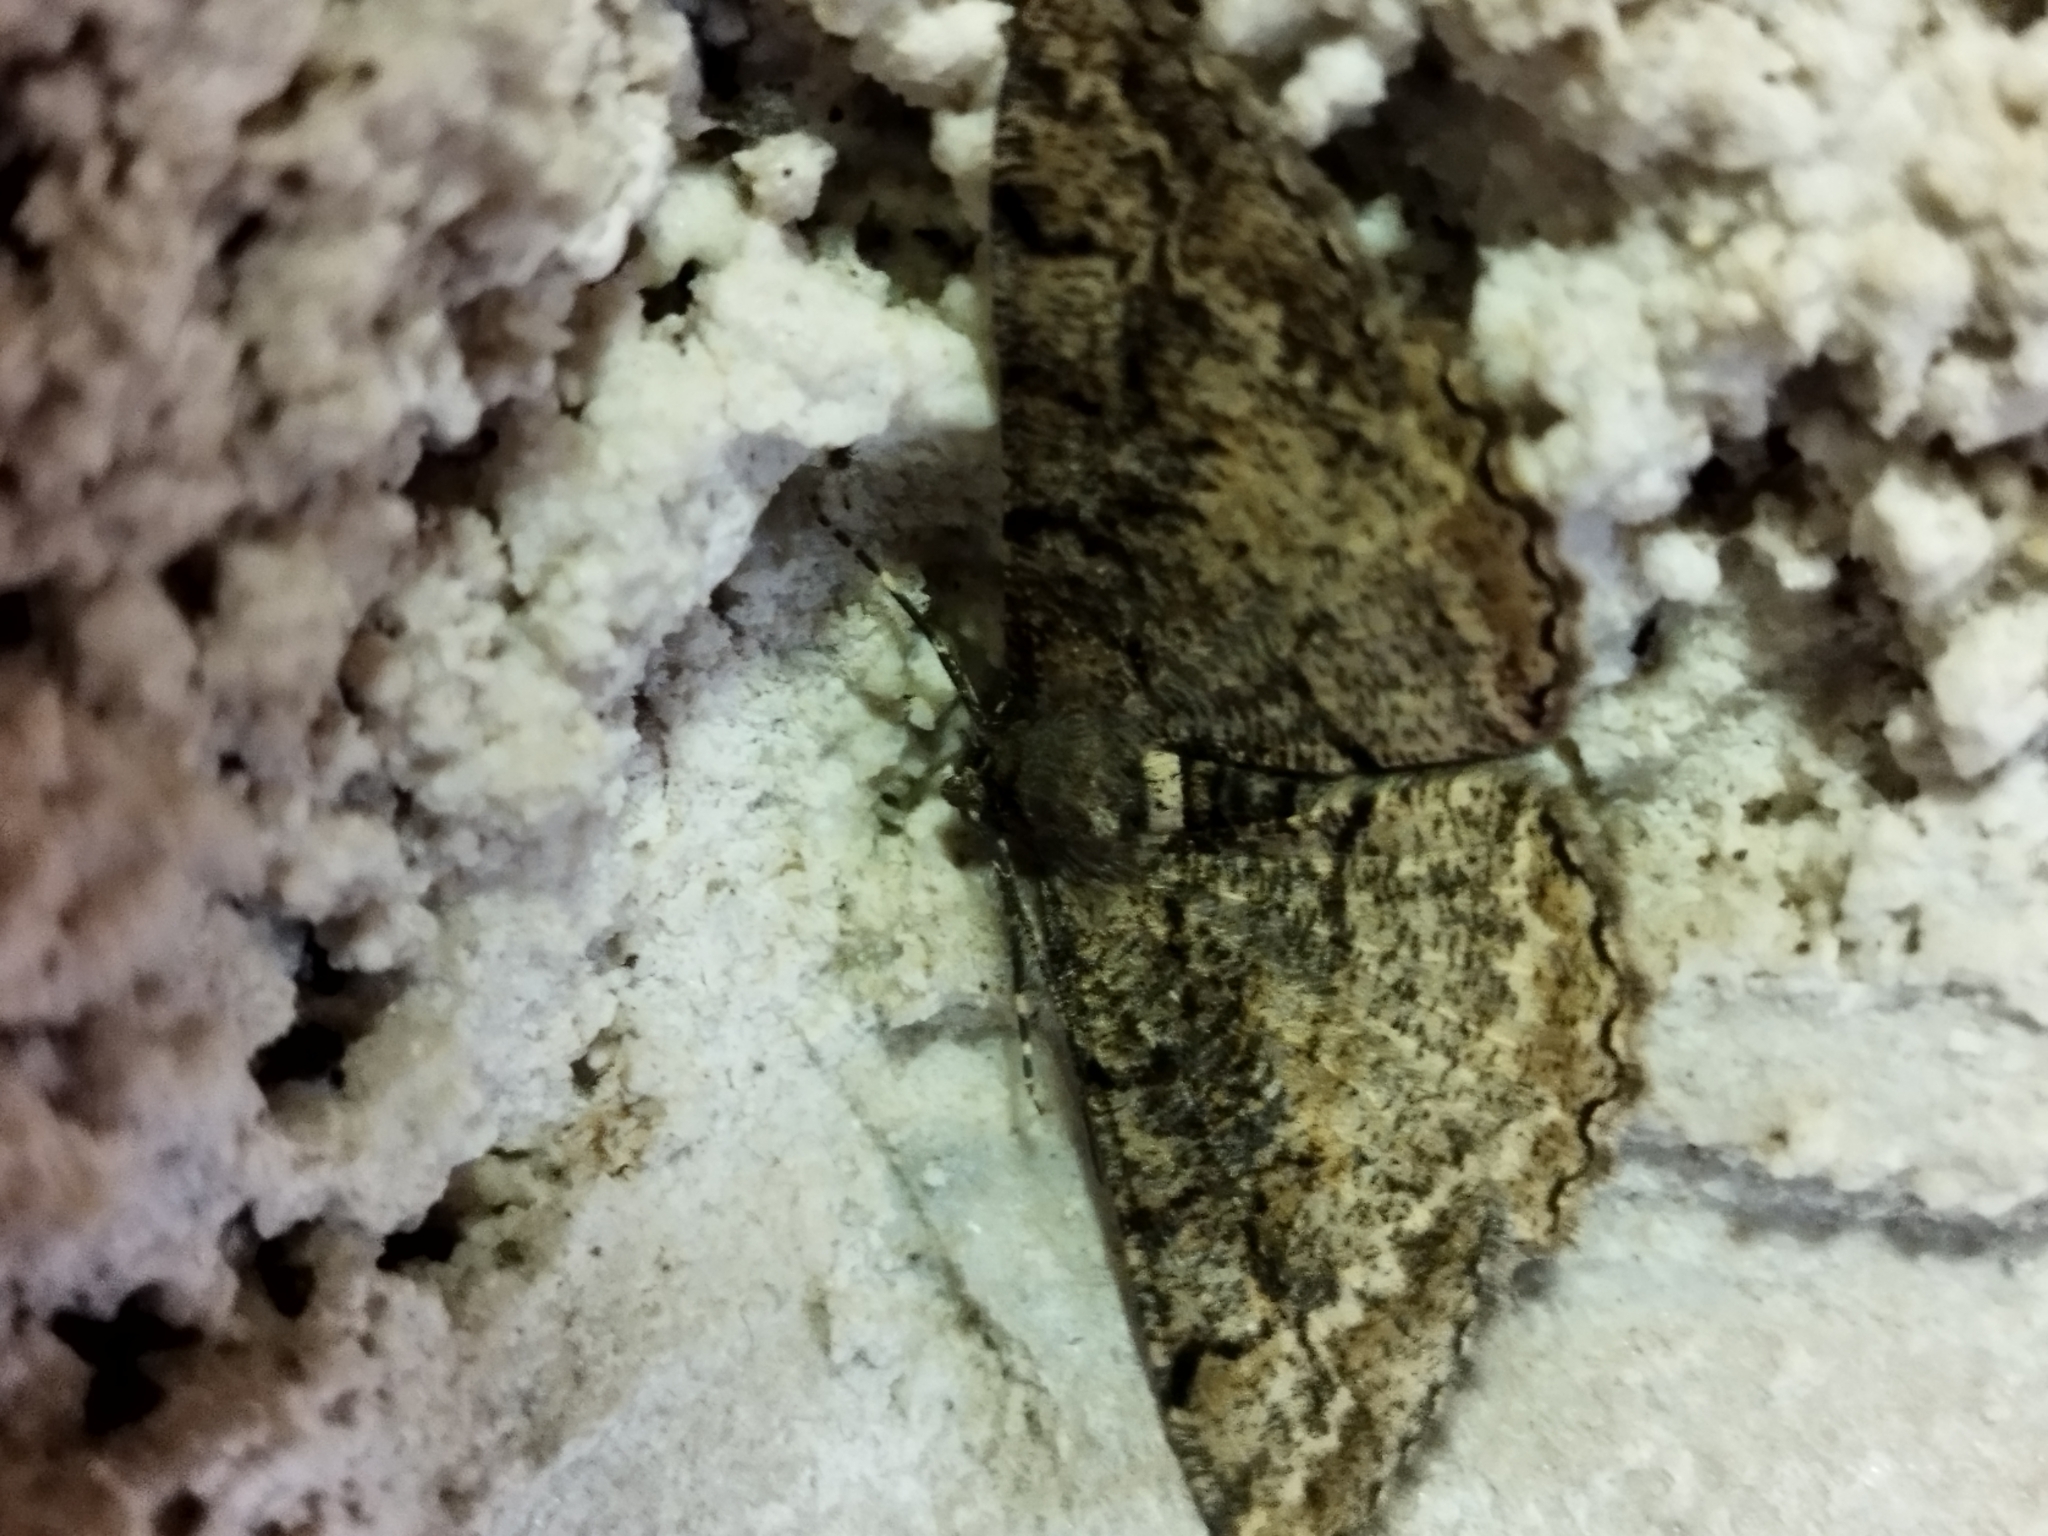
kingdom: Animalia
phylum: Arthropoda
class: Insecta
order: Lepidoptera
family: Geometridae
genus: Alcis
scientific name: Alcis repandata
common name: Mottled beauty
